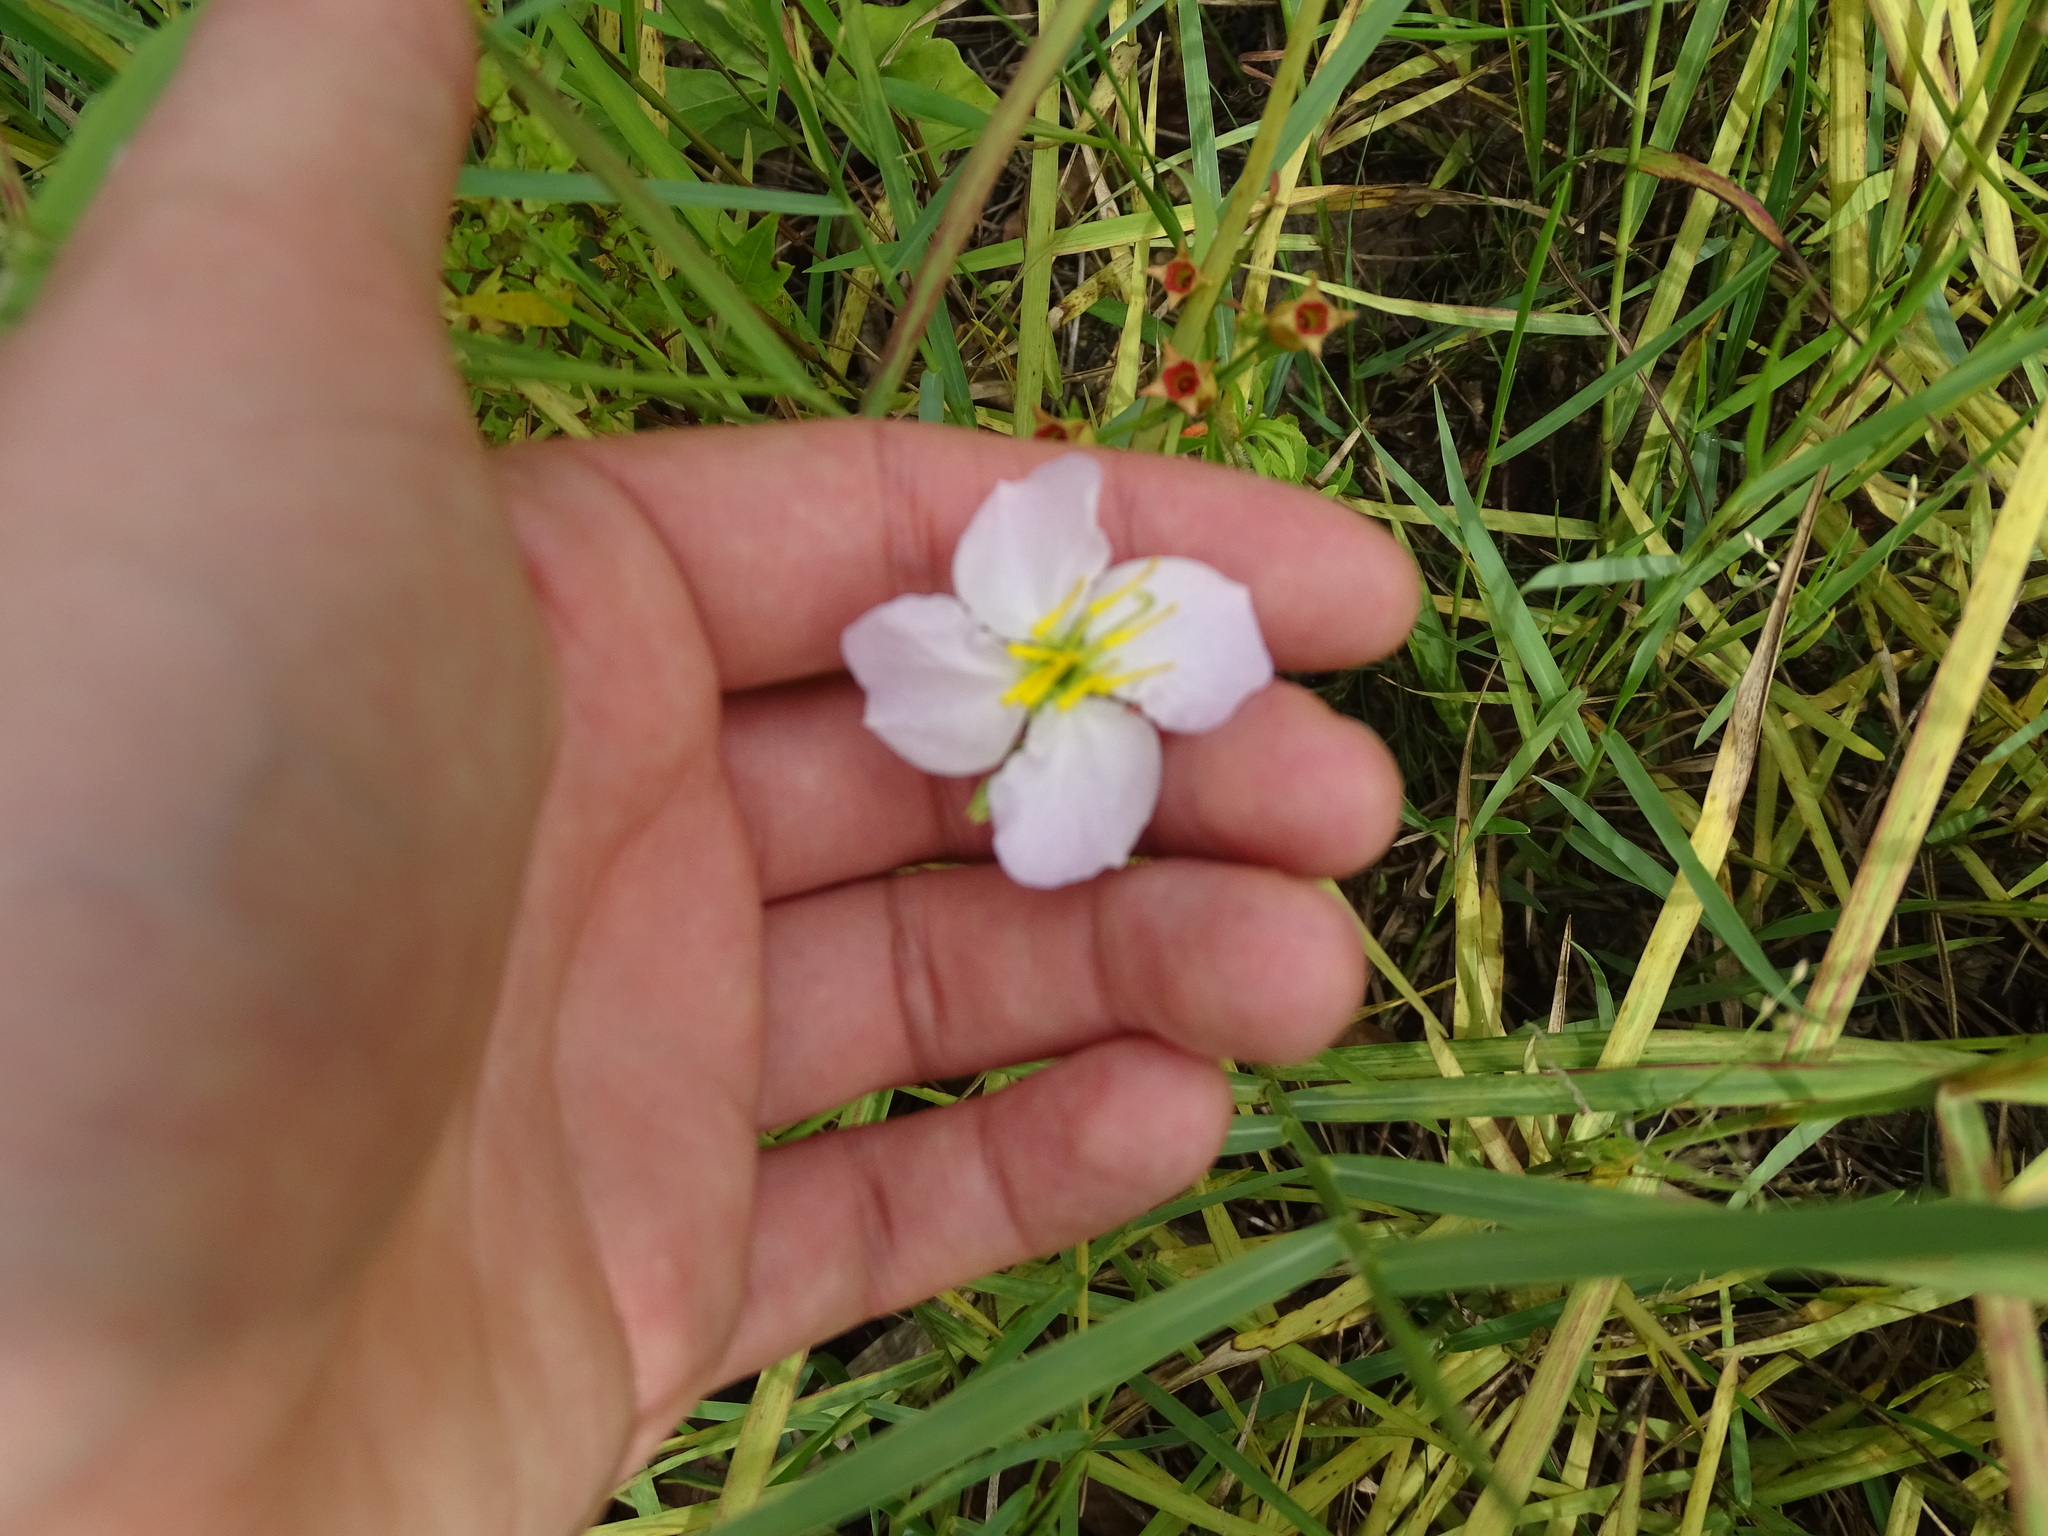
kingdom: Plantae
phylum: Tracheophyta
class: Magnoliopsida
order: Myrtales
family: Melastomataceae
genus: Rhexia
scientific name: Rhexia mariana
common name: Dull meadow-pitcher
